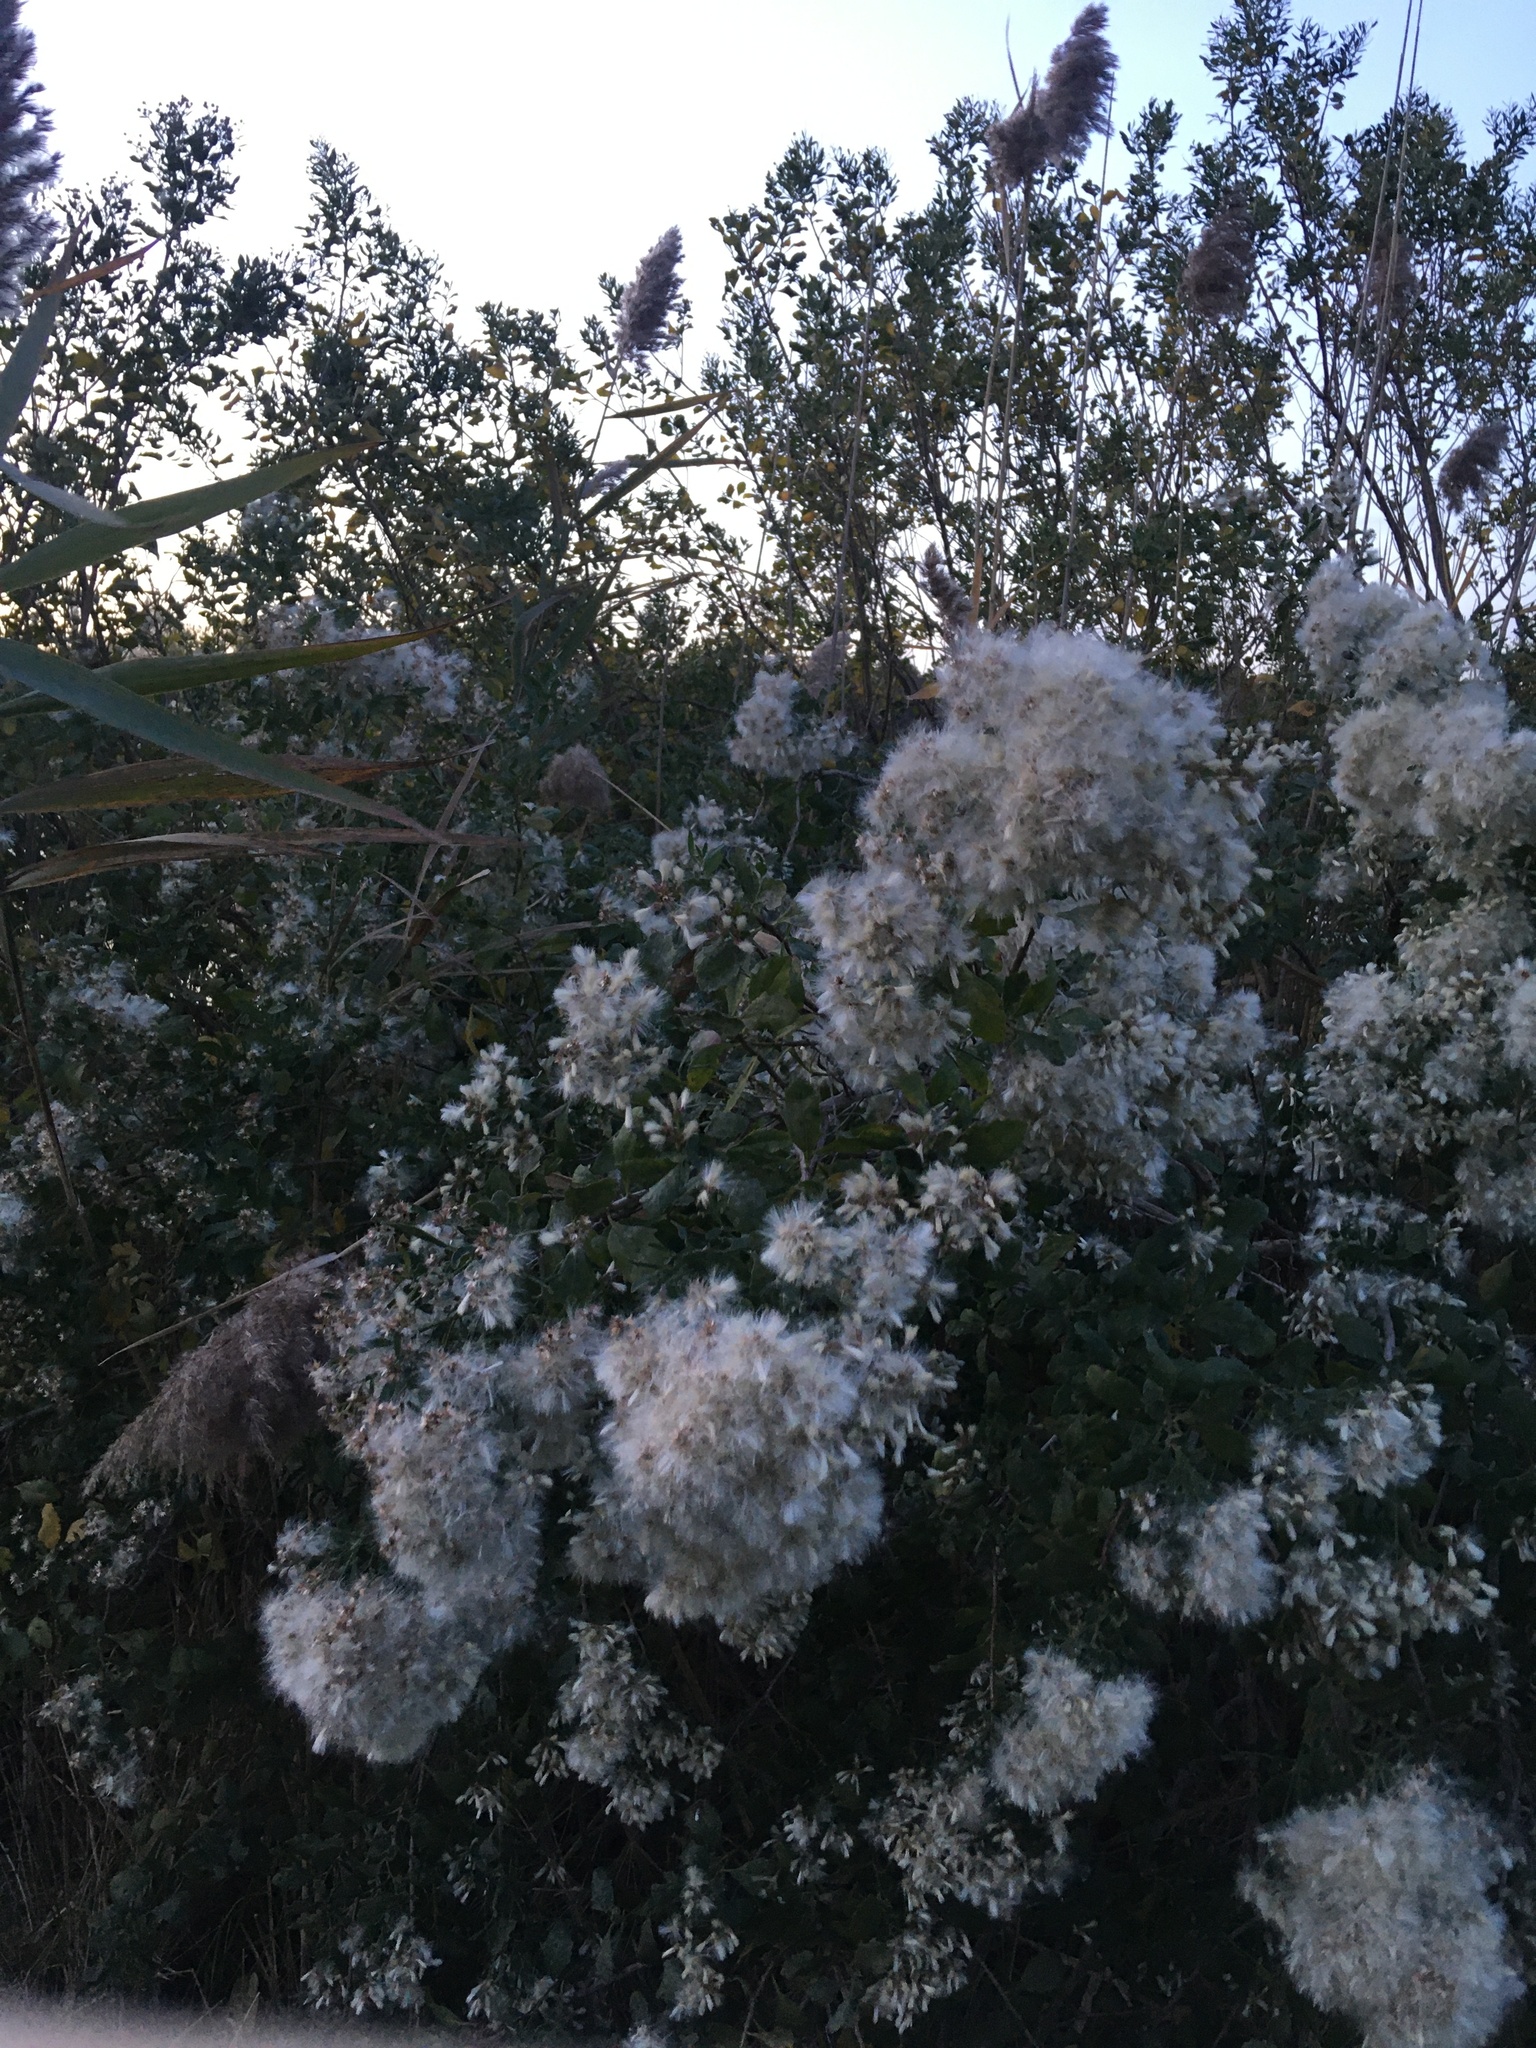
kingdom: Plantae
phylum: Tracheophyta
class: Magnoliopsida
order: Asterales
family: Asteraceae
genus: Baccharis
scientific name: Baccharis halimifolia
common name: Eastern baccharis
